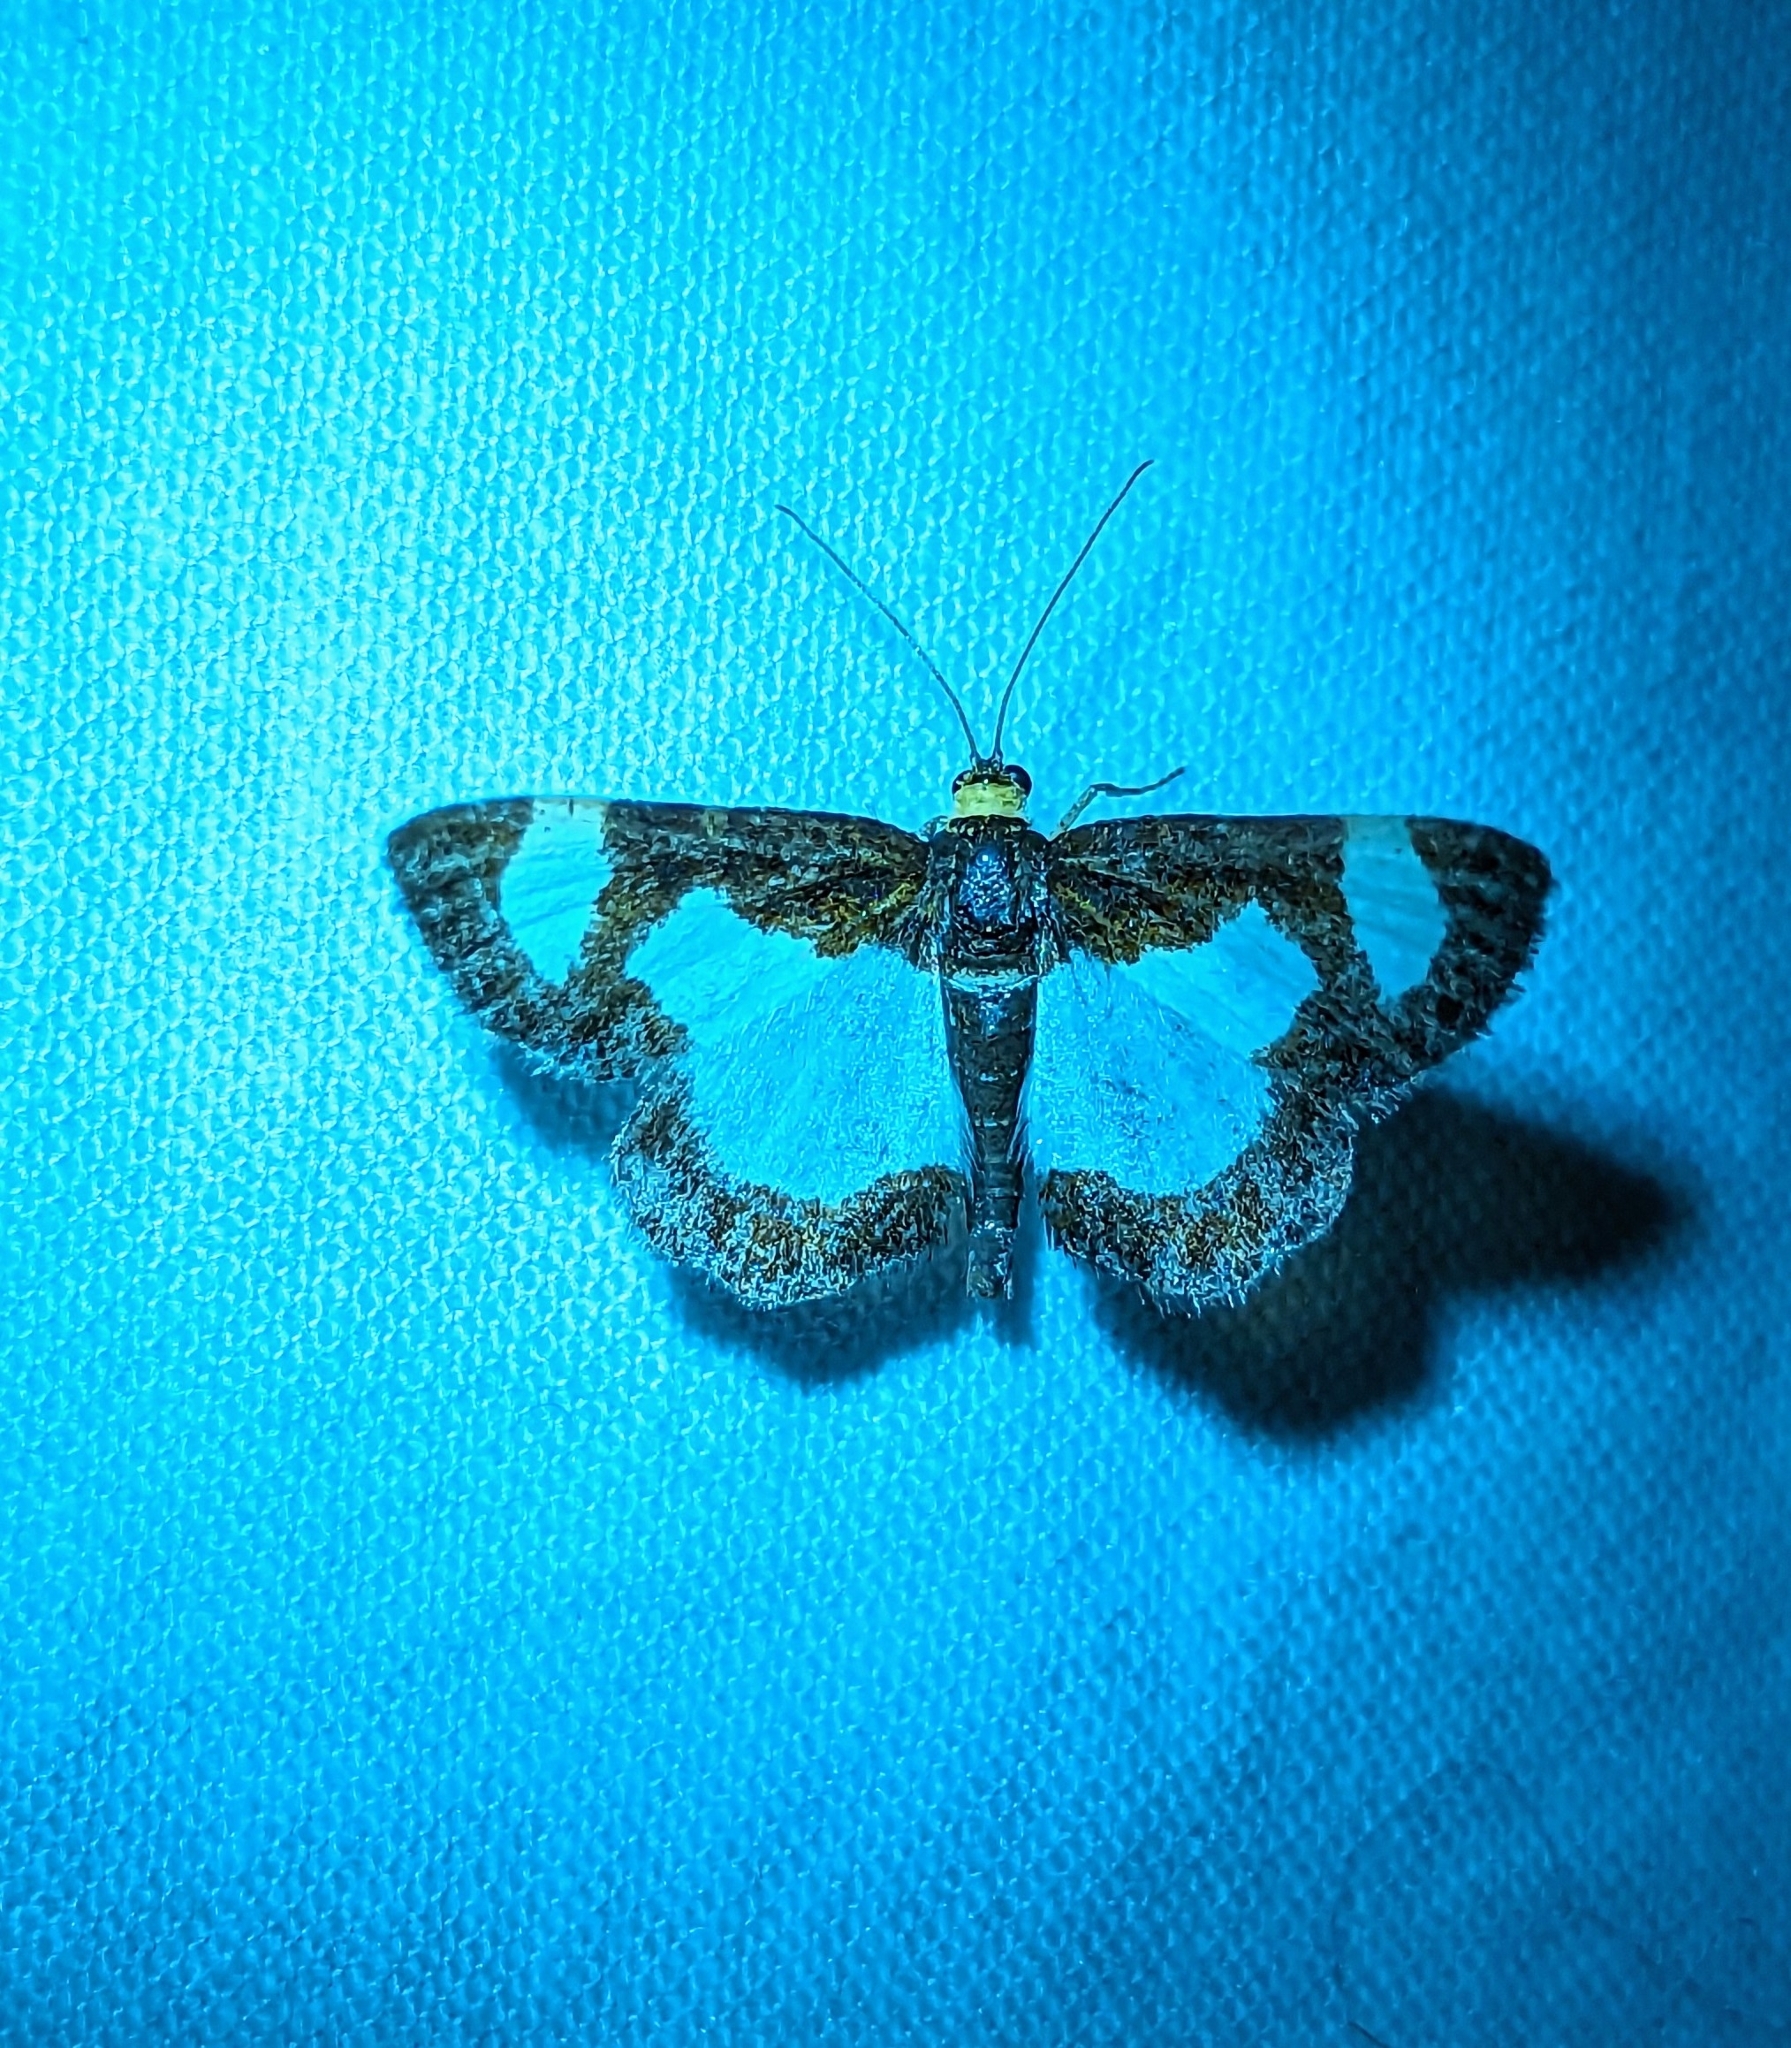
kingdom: Animalia
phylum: Arthropoda
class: Insecta
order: Lepidoptera
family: Geometridae
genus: Heliomata
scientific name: Heliomata cycladata
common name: Common spring moth
